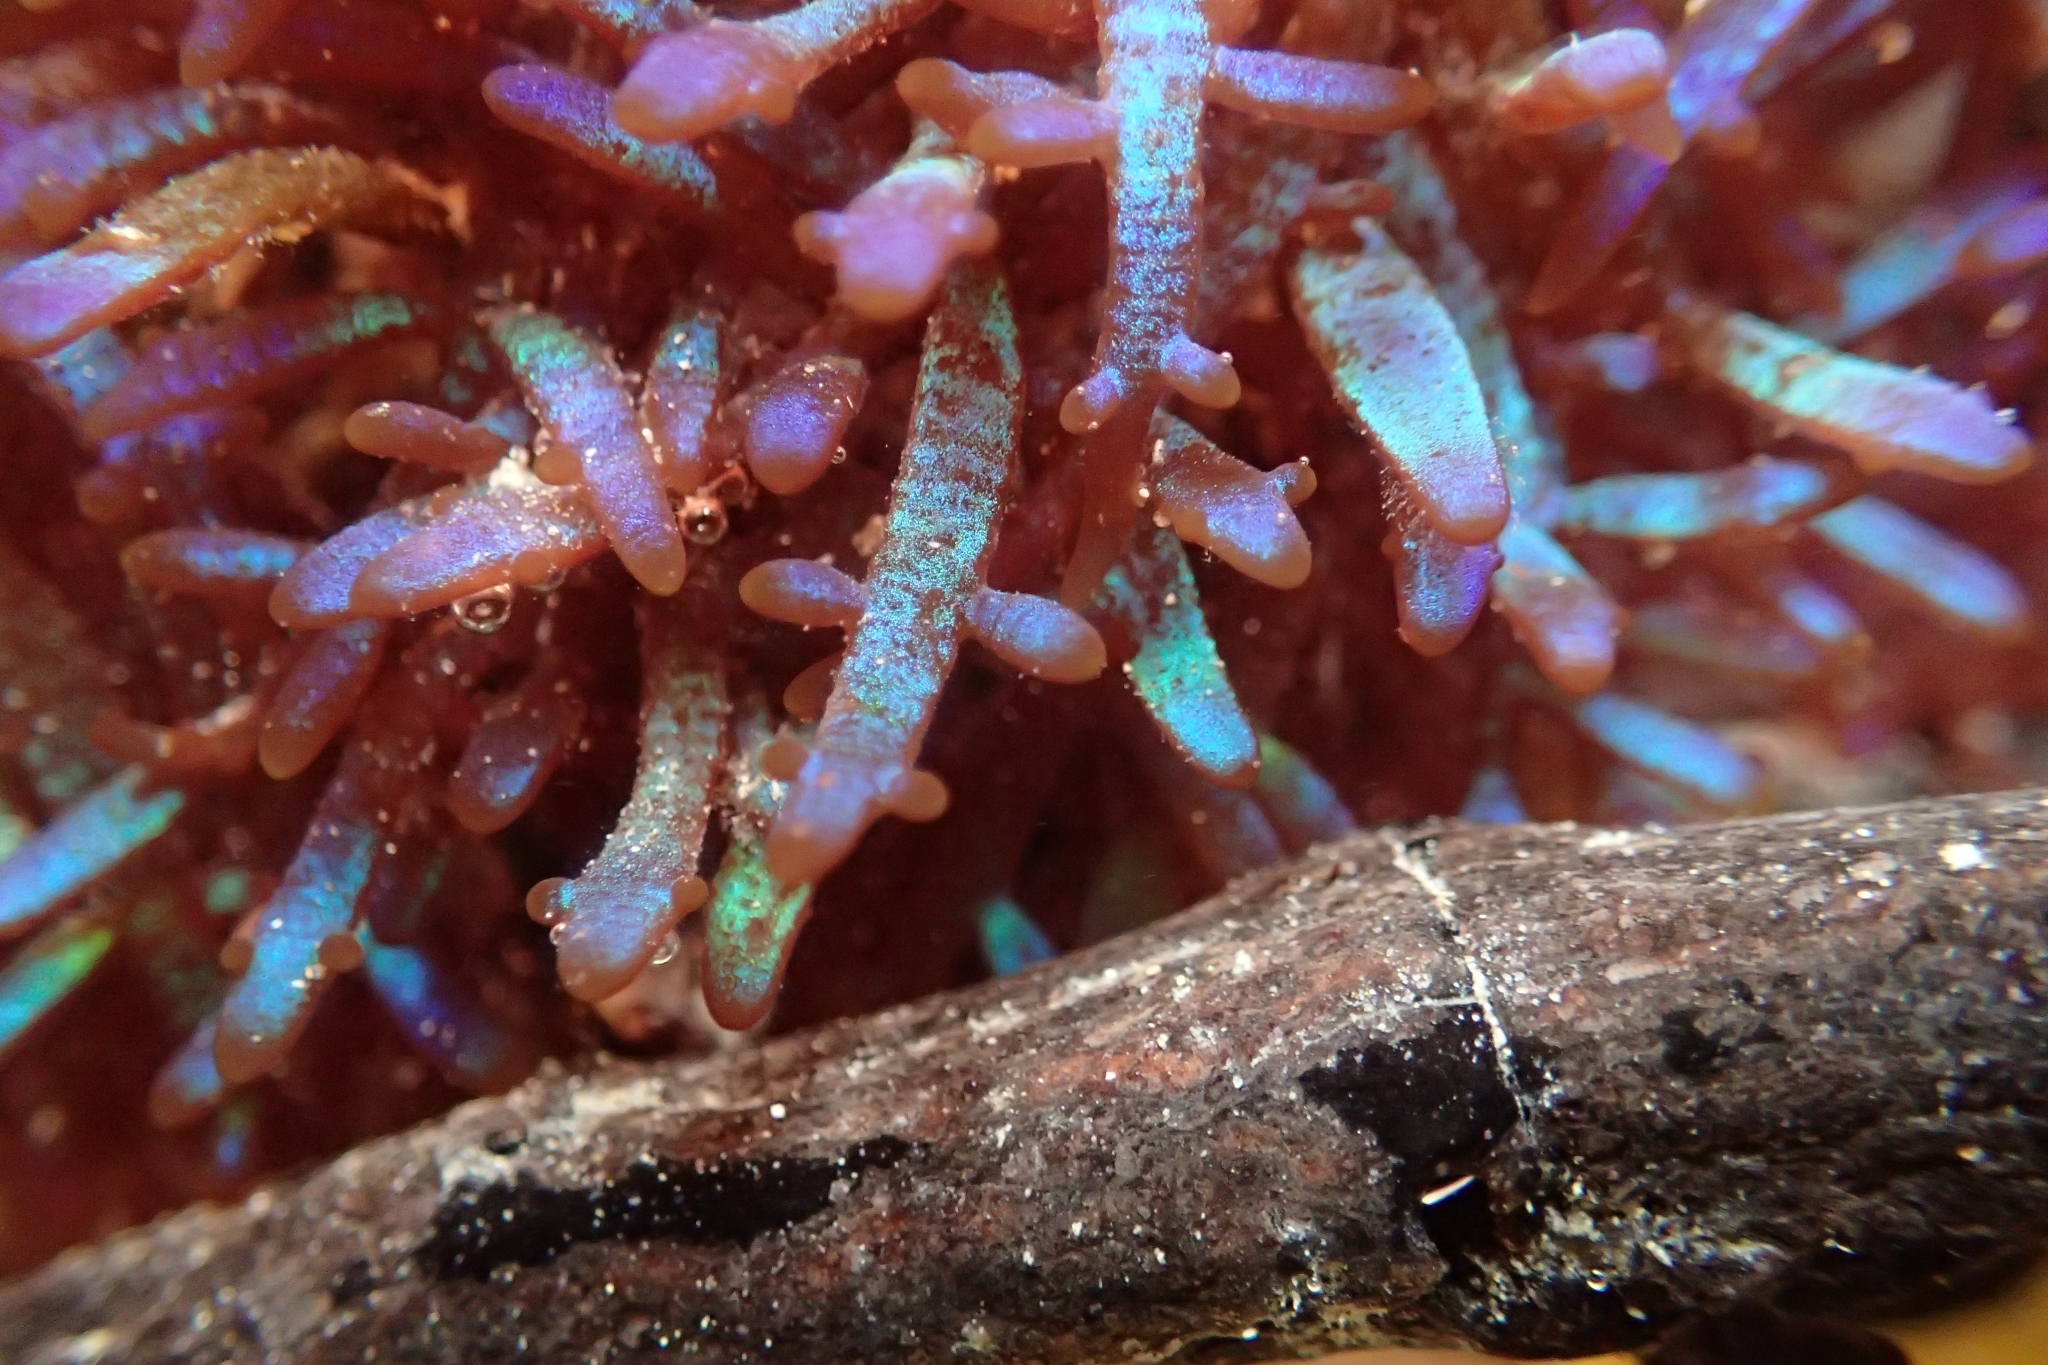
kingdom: Plantae
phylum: Rhodophyta
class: Florideophyceae
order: Rhodymeniales
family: Champiaceae
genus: Champia
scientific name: Champia laingii
